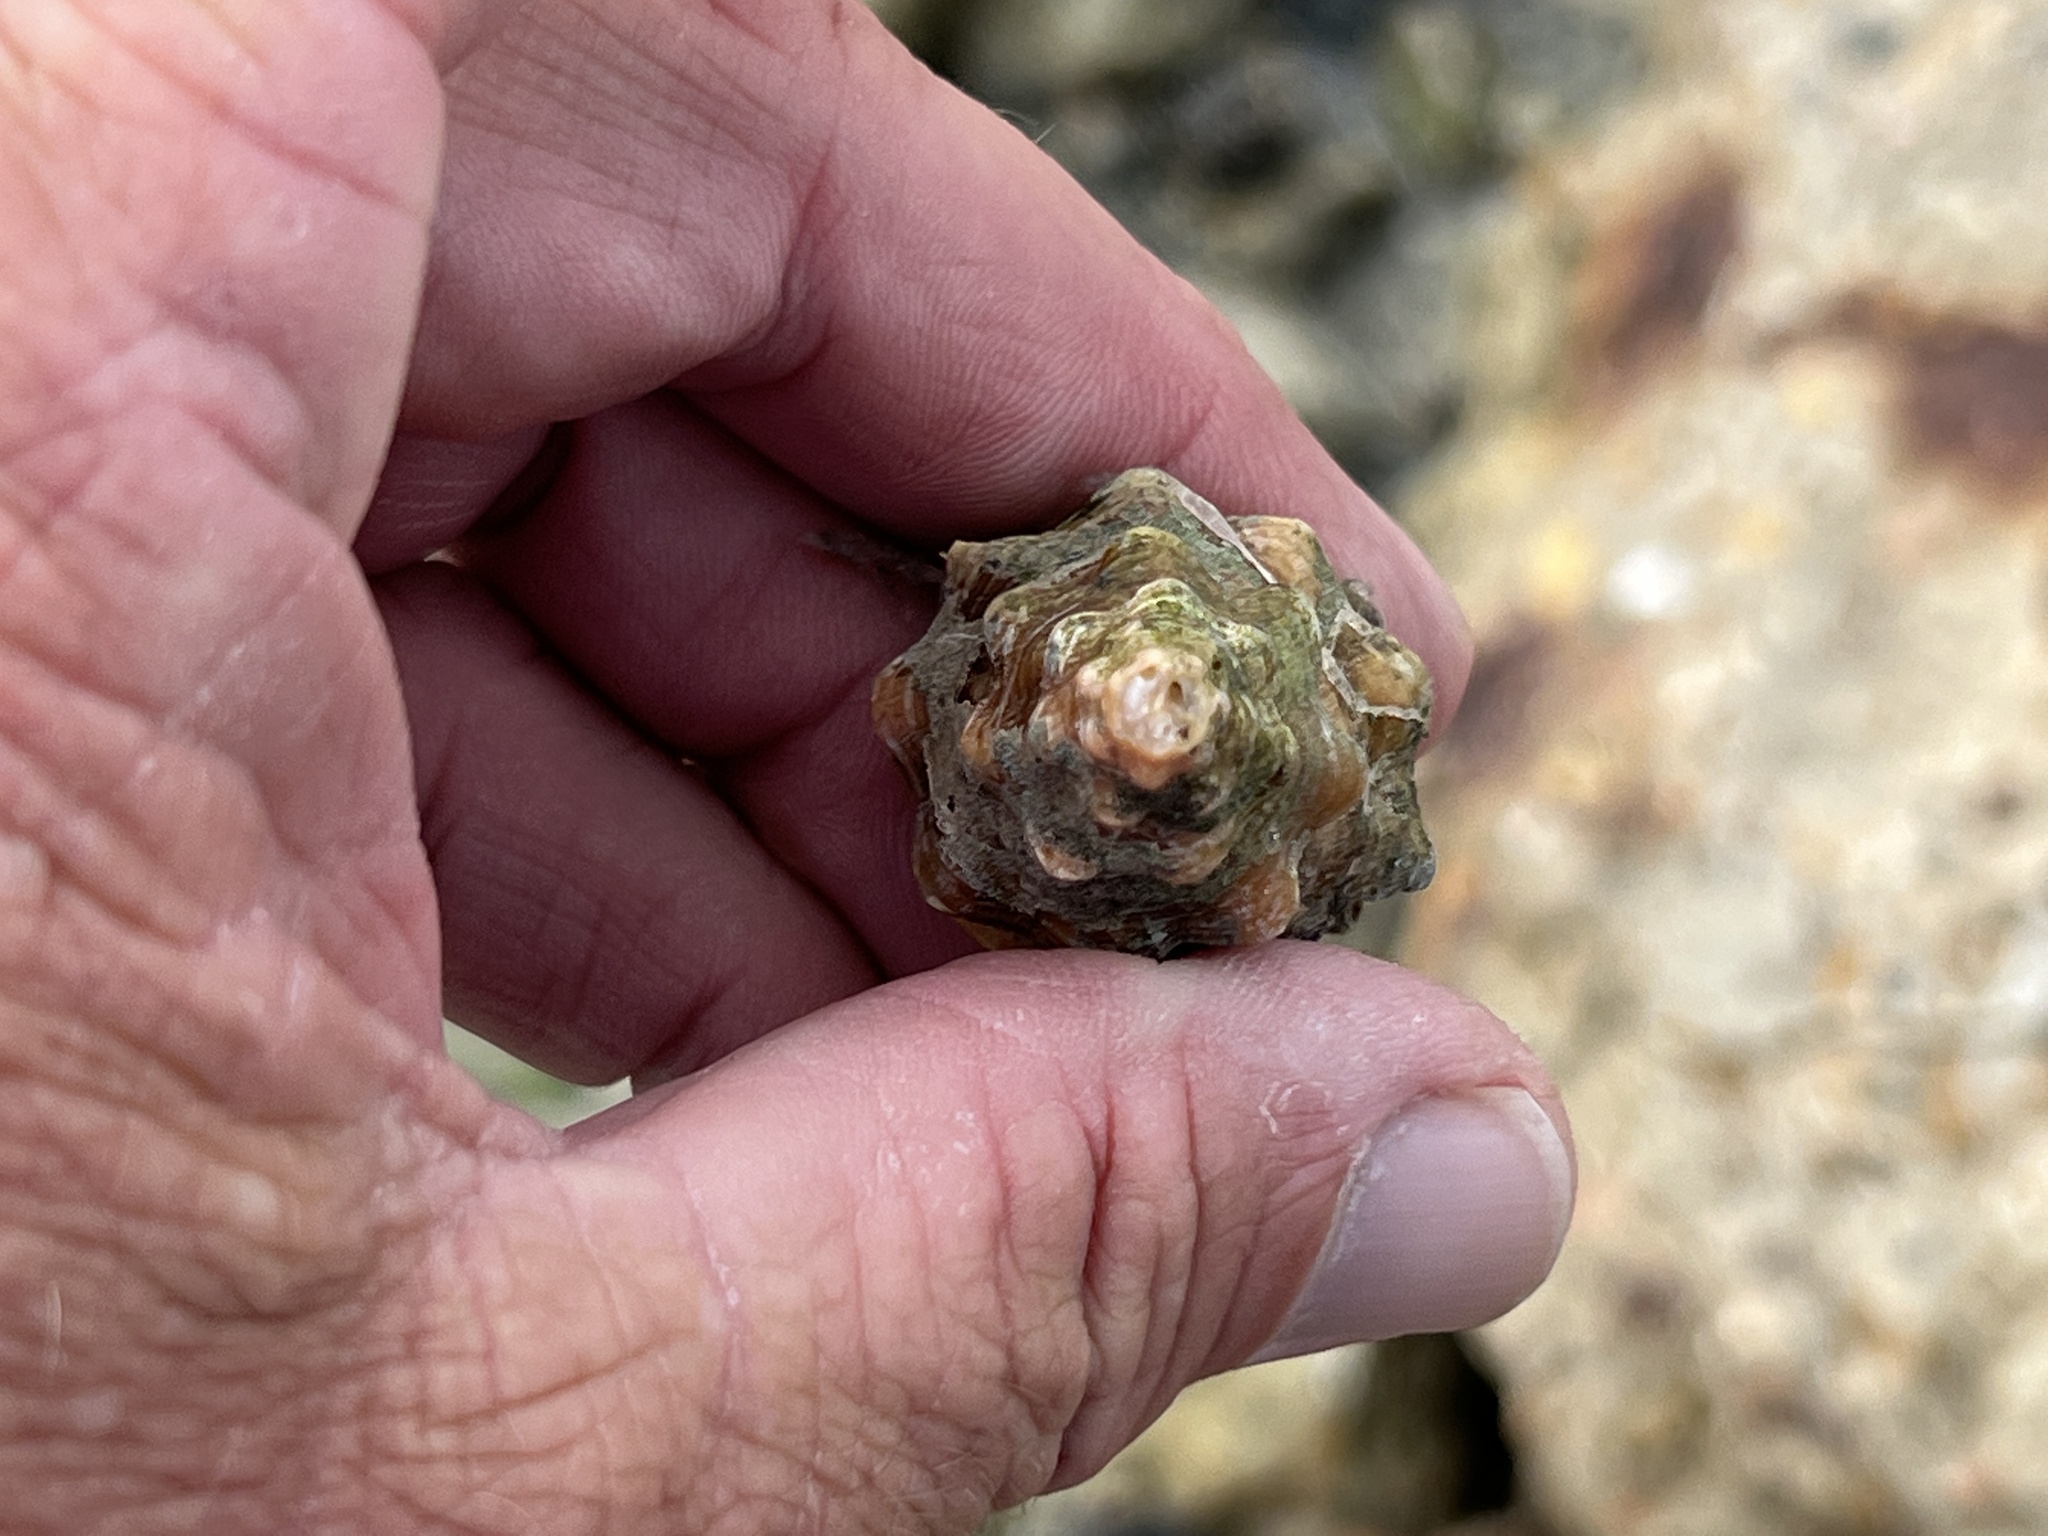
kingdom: Animalia
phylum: Mollusca
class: Gastropoda
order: Neogastropoda
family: Fasciolariidae
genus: Triplofusus
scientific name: Triplofusus giganteus
